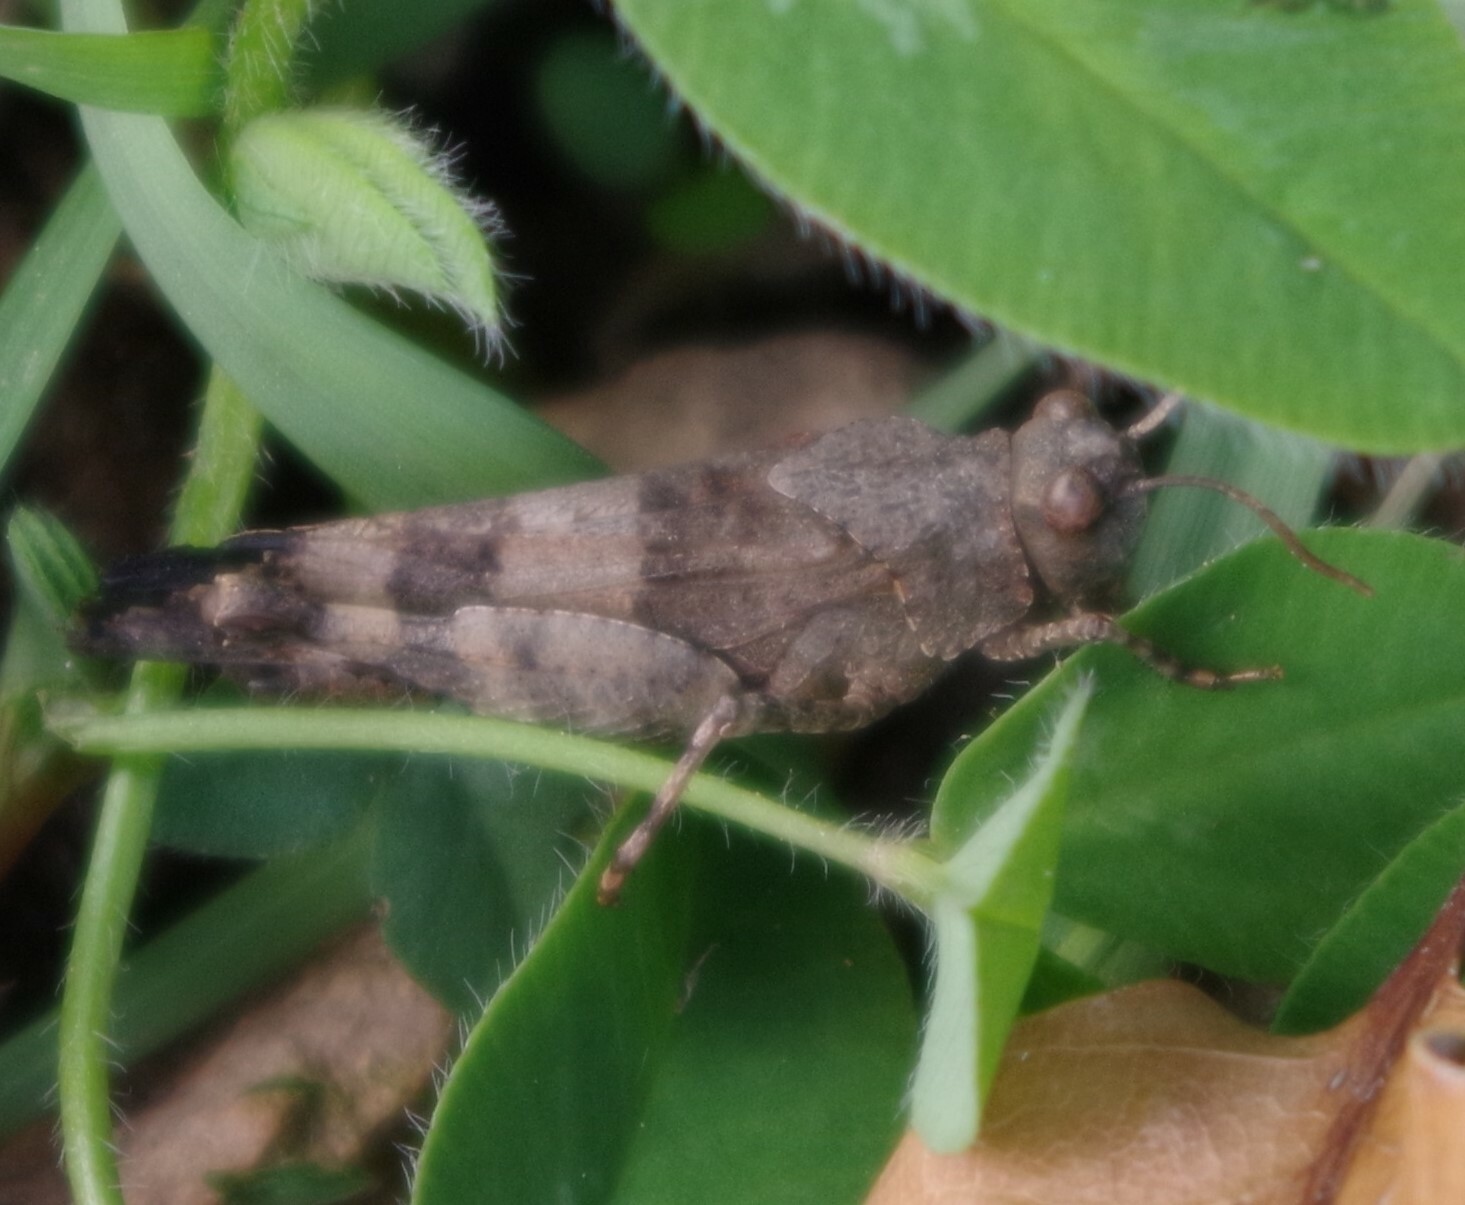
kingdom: Animalia
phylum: Arthropoda
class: Insecta
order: Orthoptera
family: Acrididae
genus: Oedipoda
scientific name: Oedipoda caerulescens
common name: Blue-winged grasshopper
